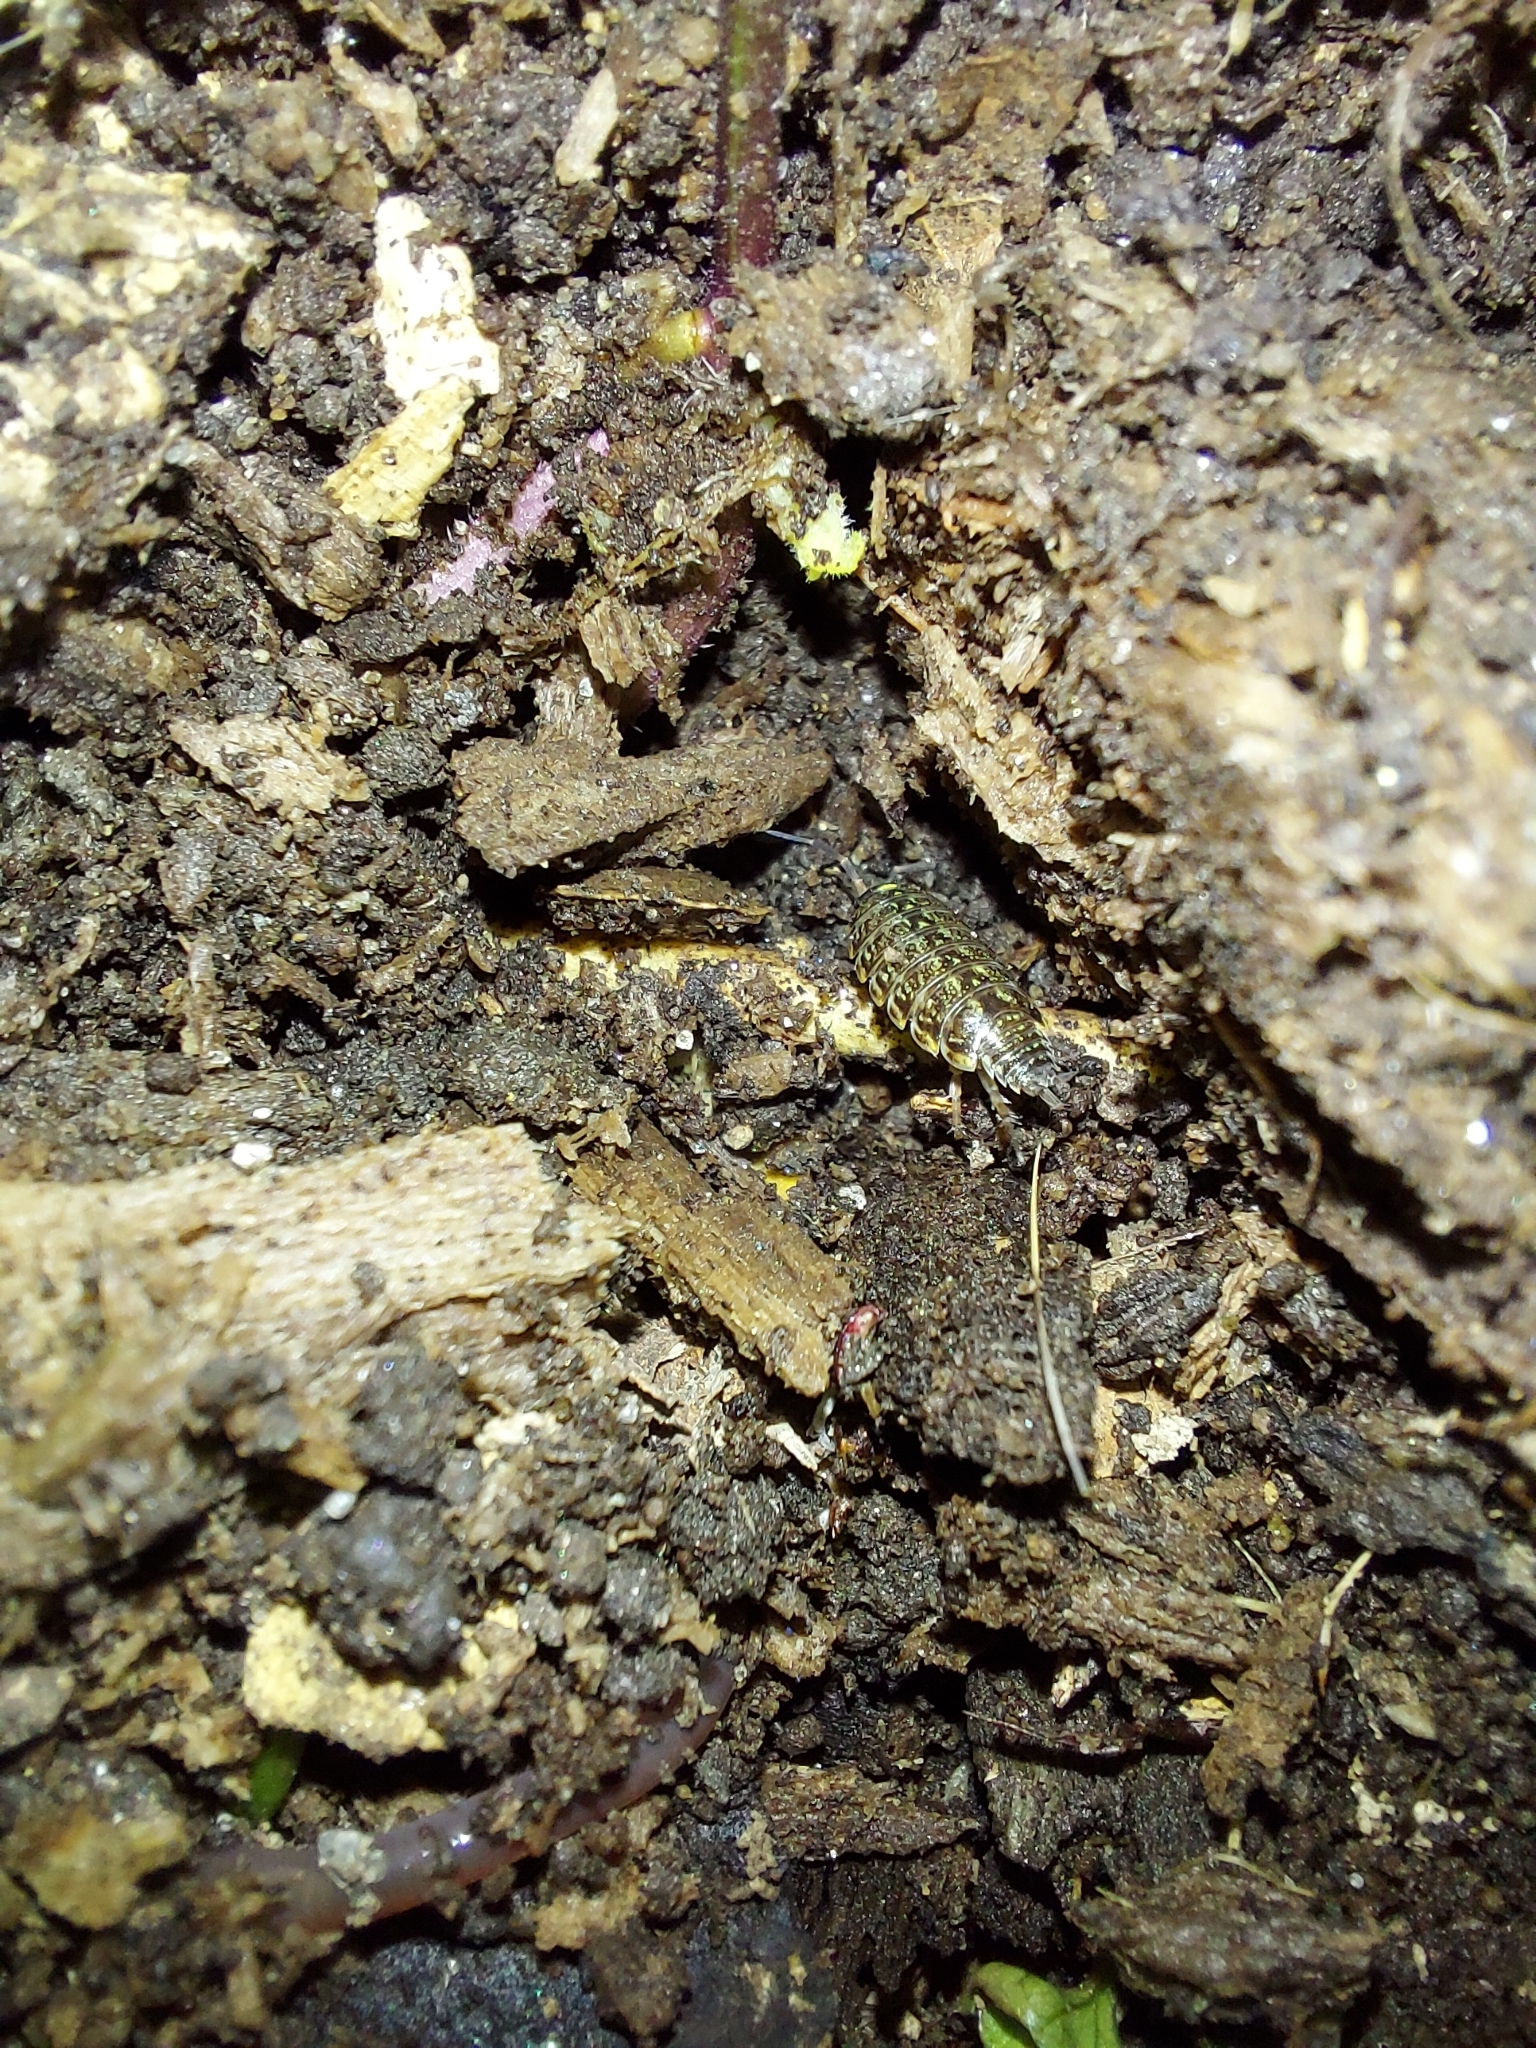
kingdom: Animalia
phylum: Arthropoda
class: Malacostraca
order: Isopoda
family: Philosciidae
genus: Philoscia
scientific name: Philoscia muscorum
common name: Common striped woodlouse
